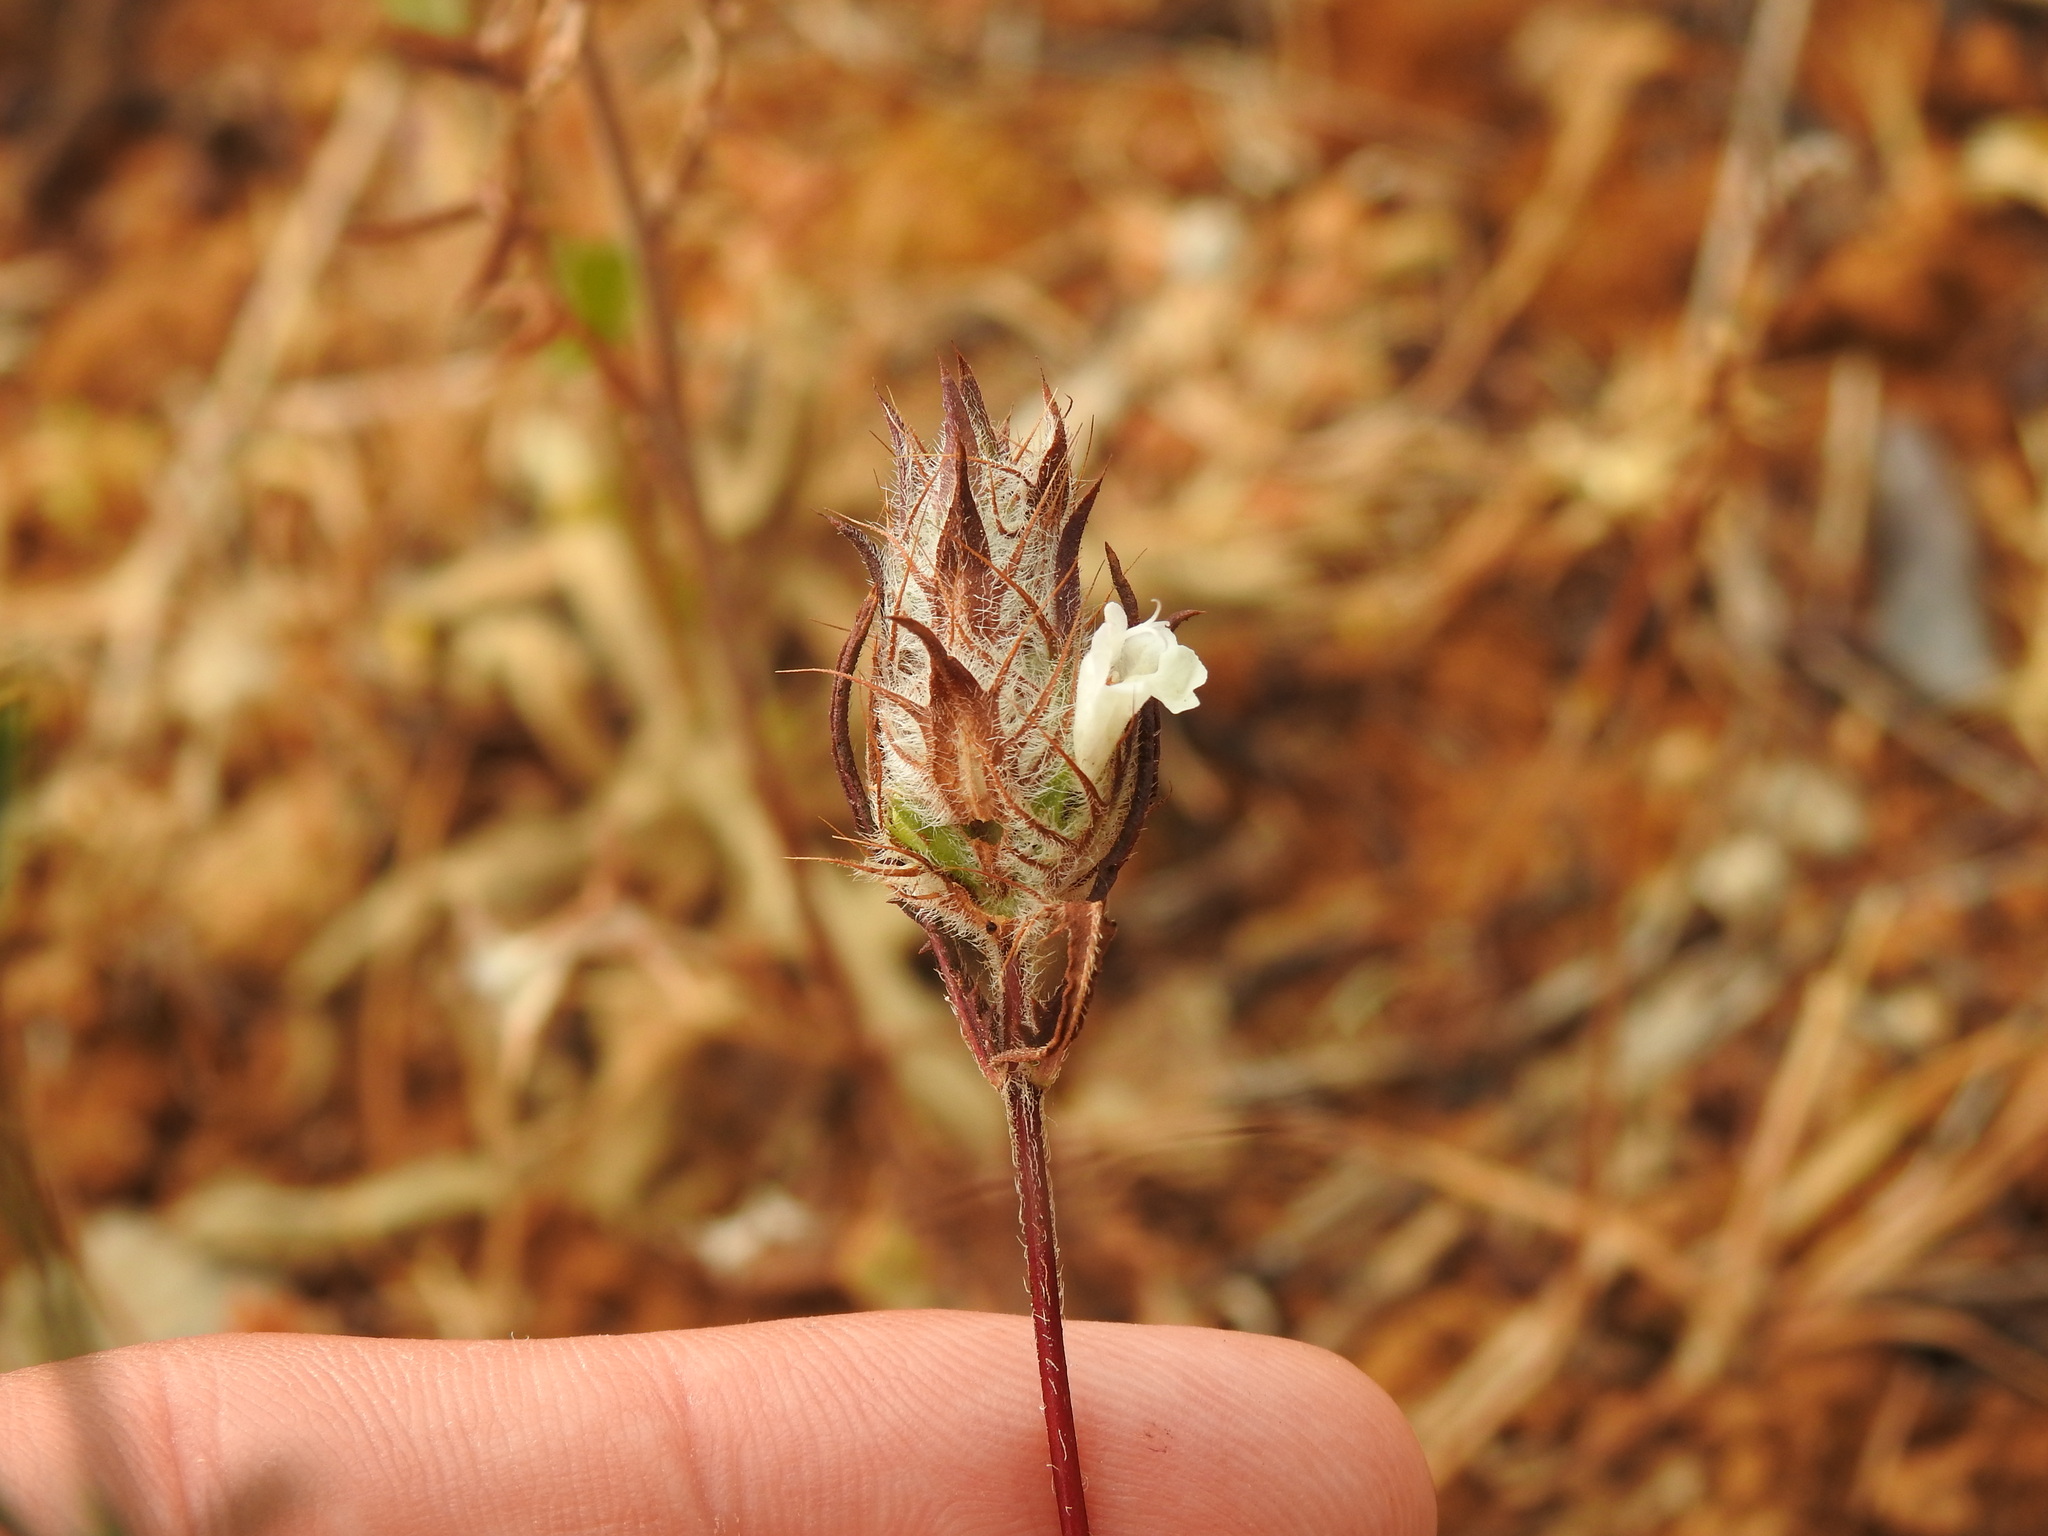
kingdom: Plantae
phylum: Tracheophyta
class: Magnoliopsida
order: Lamiales
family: Lamiaceae
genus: Cleonia
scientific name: Cleonia lusitanica
